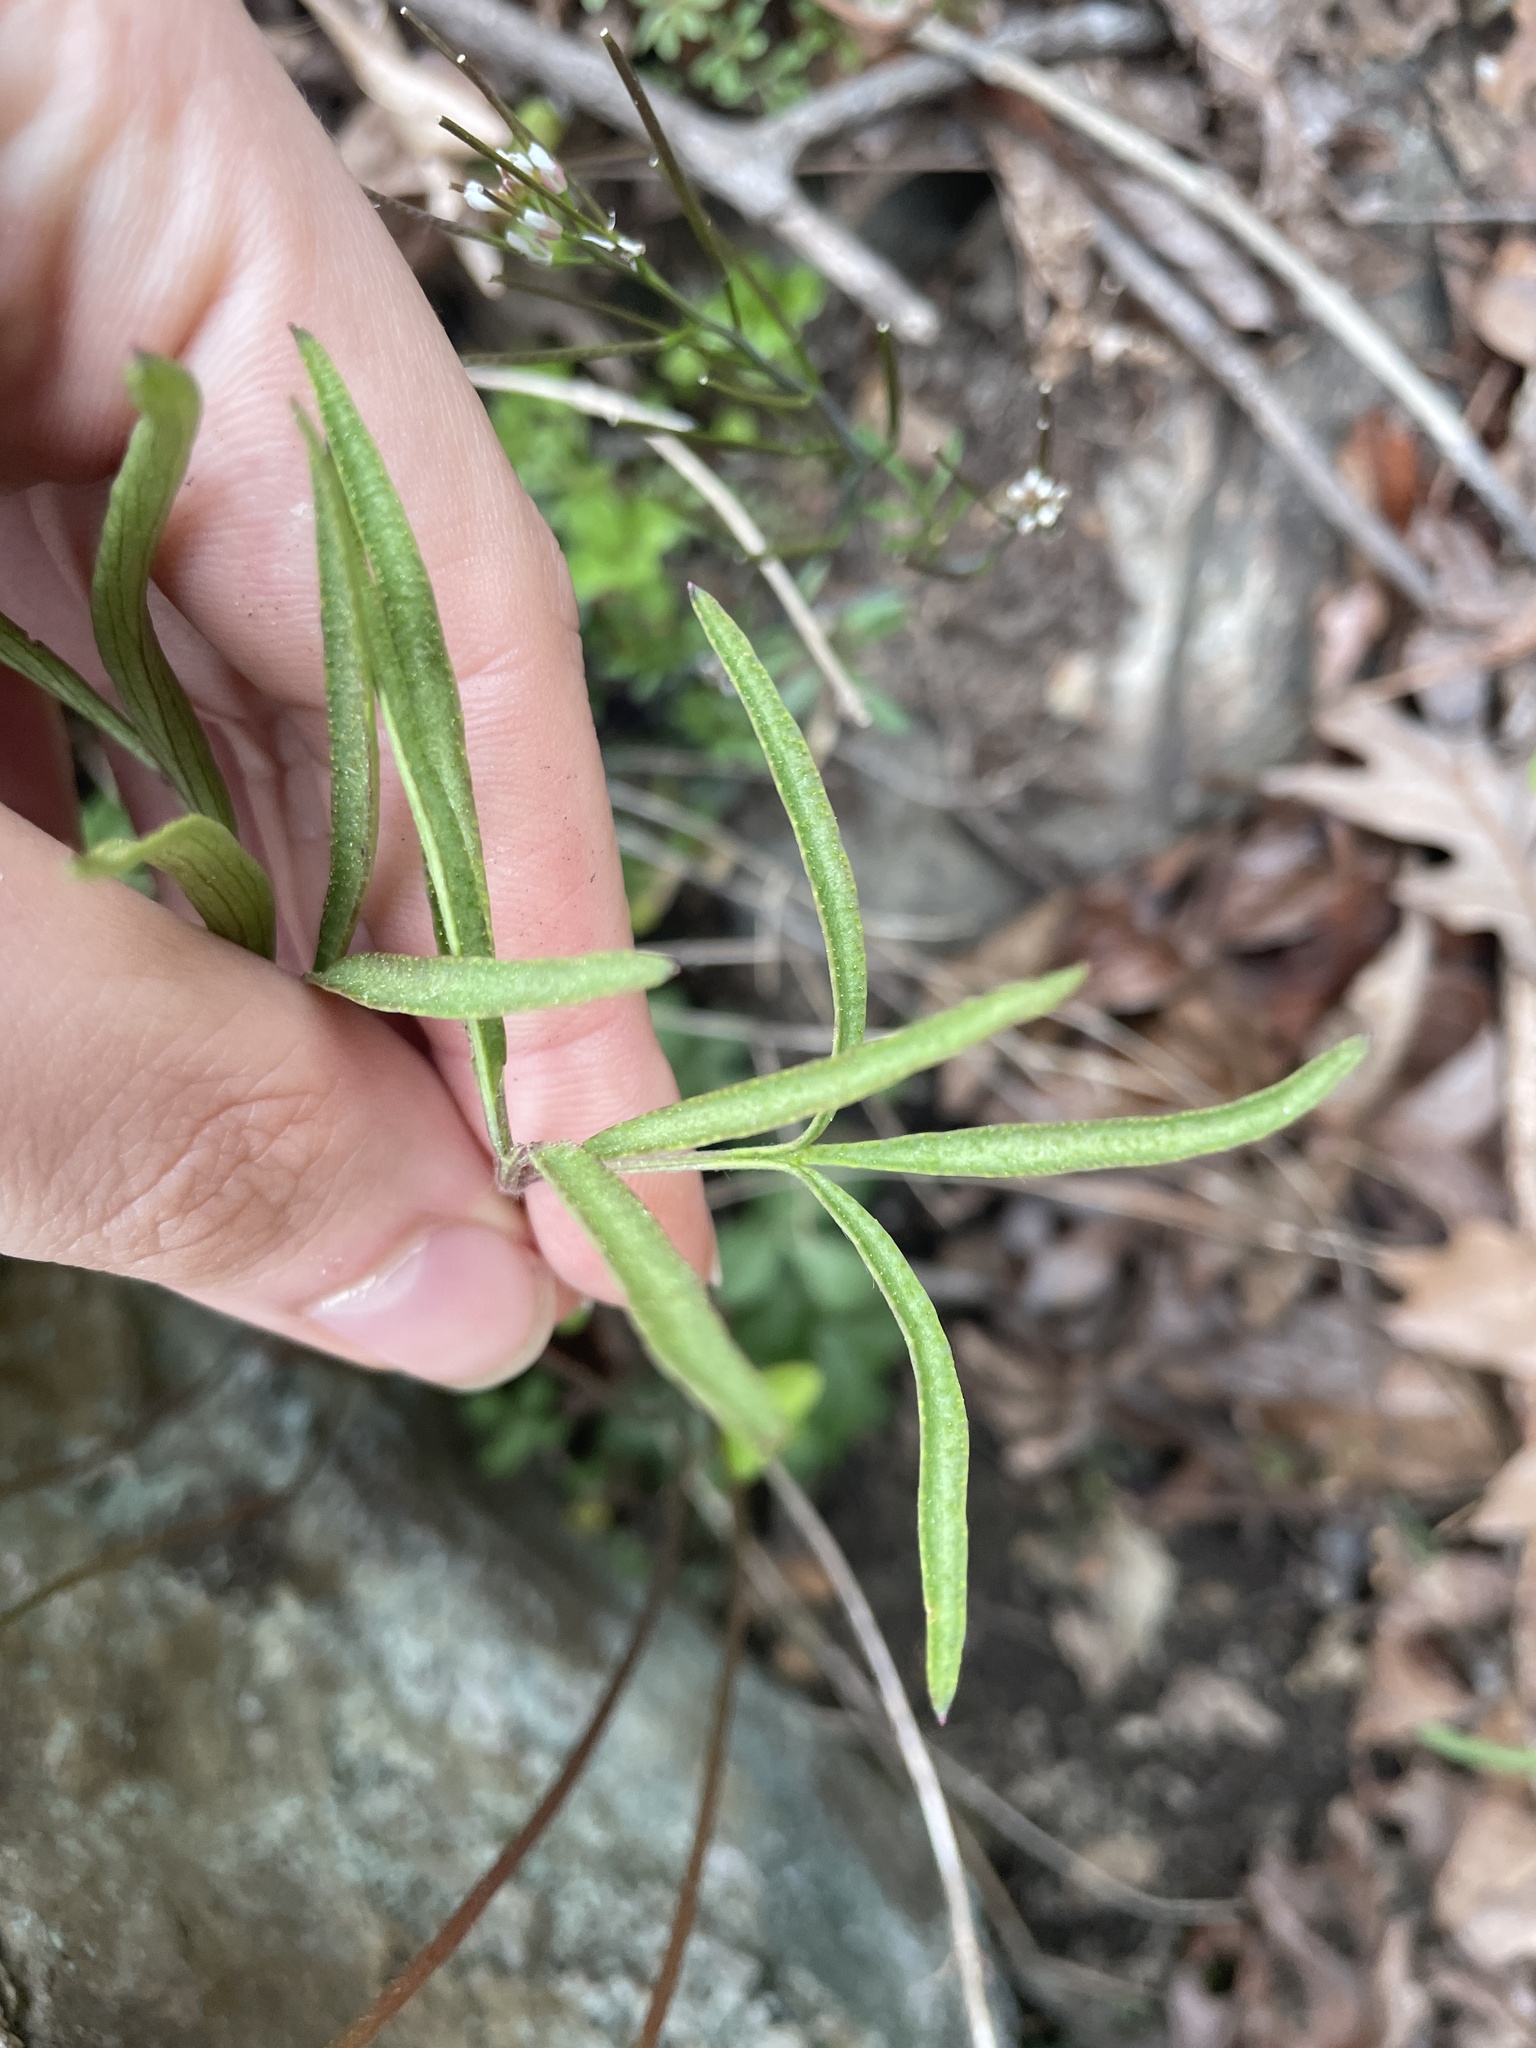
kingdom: Plantae
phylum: Tracheophyta
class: Magnoliopsida
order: Ranunculales
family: Ranunculaceae
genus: Anemone
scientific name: Anemone berlandieri
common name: Ten-petal anemone
